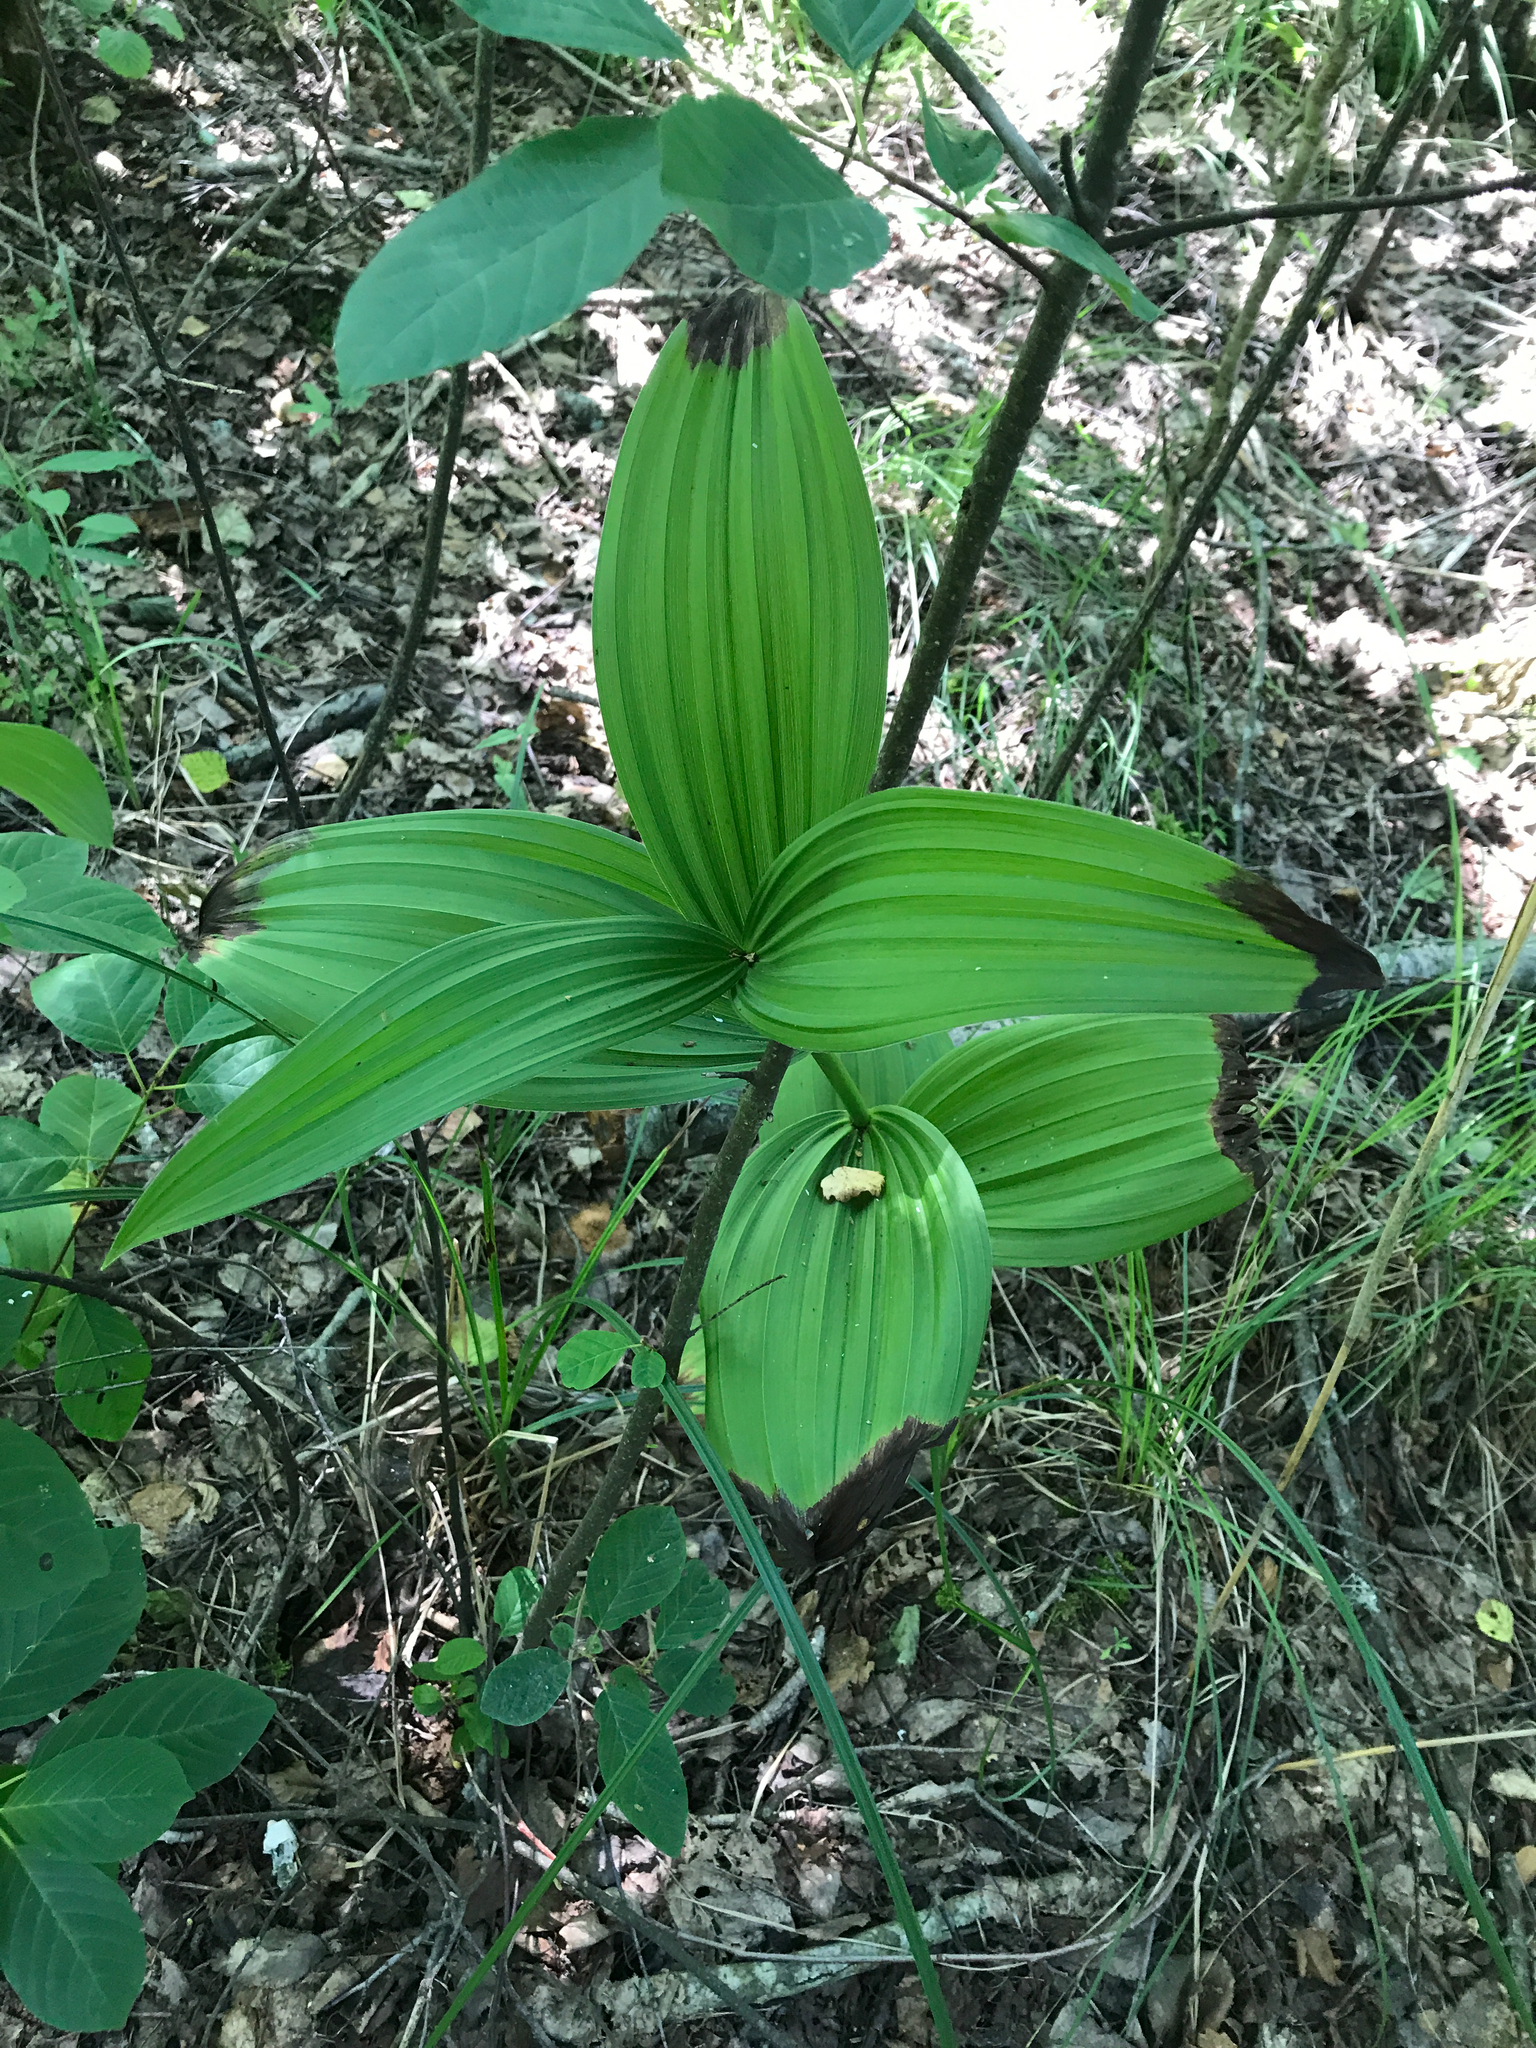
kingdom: Plantae
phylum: Tracheophyta
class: Liliopsida
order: Liliales
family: Melanthiaceae
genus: Veratrum
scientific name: Veratrum lobelianum
